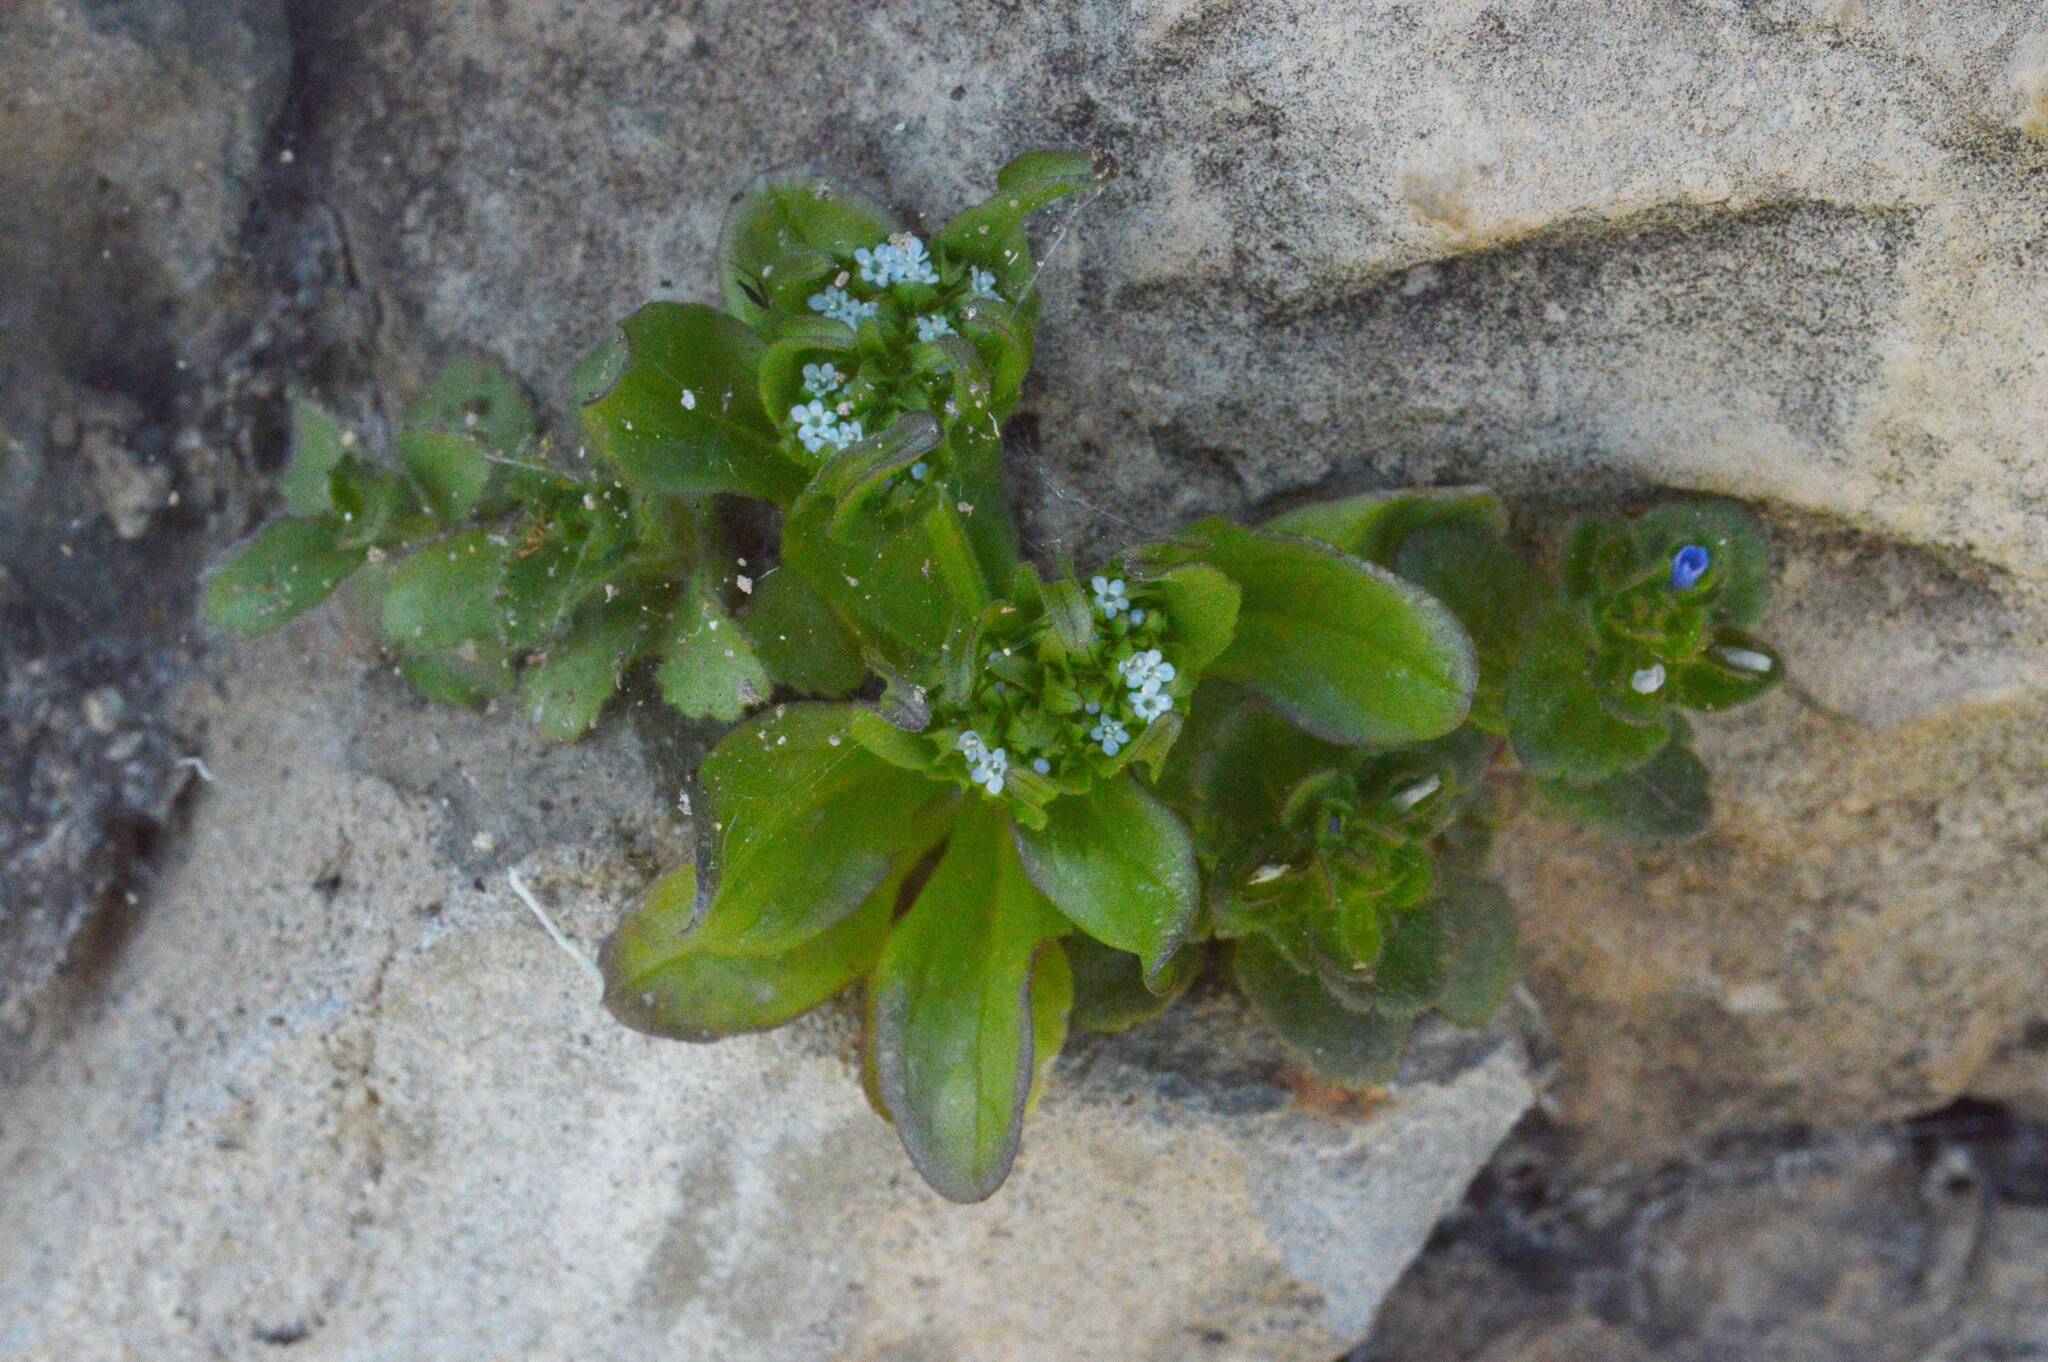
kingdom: Plantae
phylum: Tracheophyta
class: Magnoliopsida
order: Lamiales
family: Plantaginaceae
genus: Veronica
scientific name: Veronica arvensis
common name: Corn speedwell
